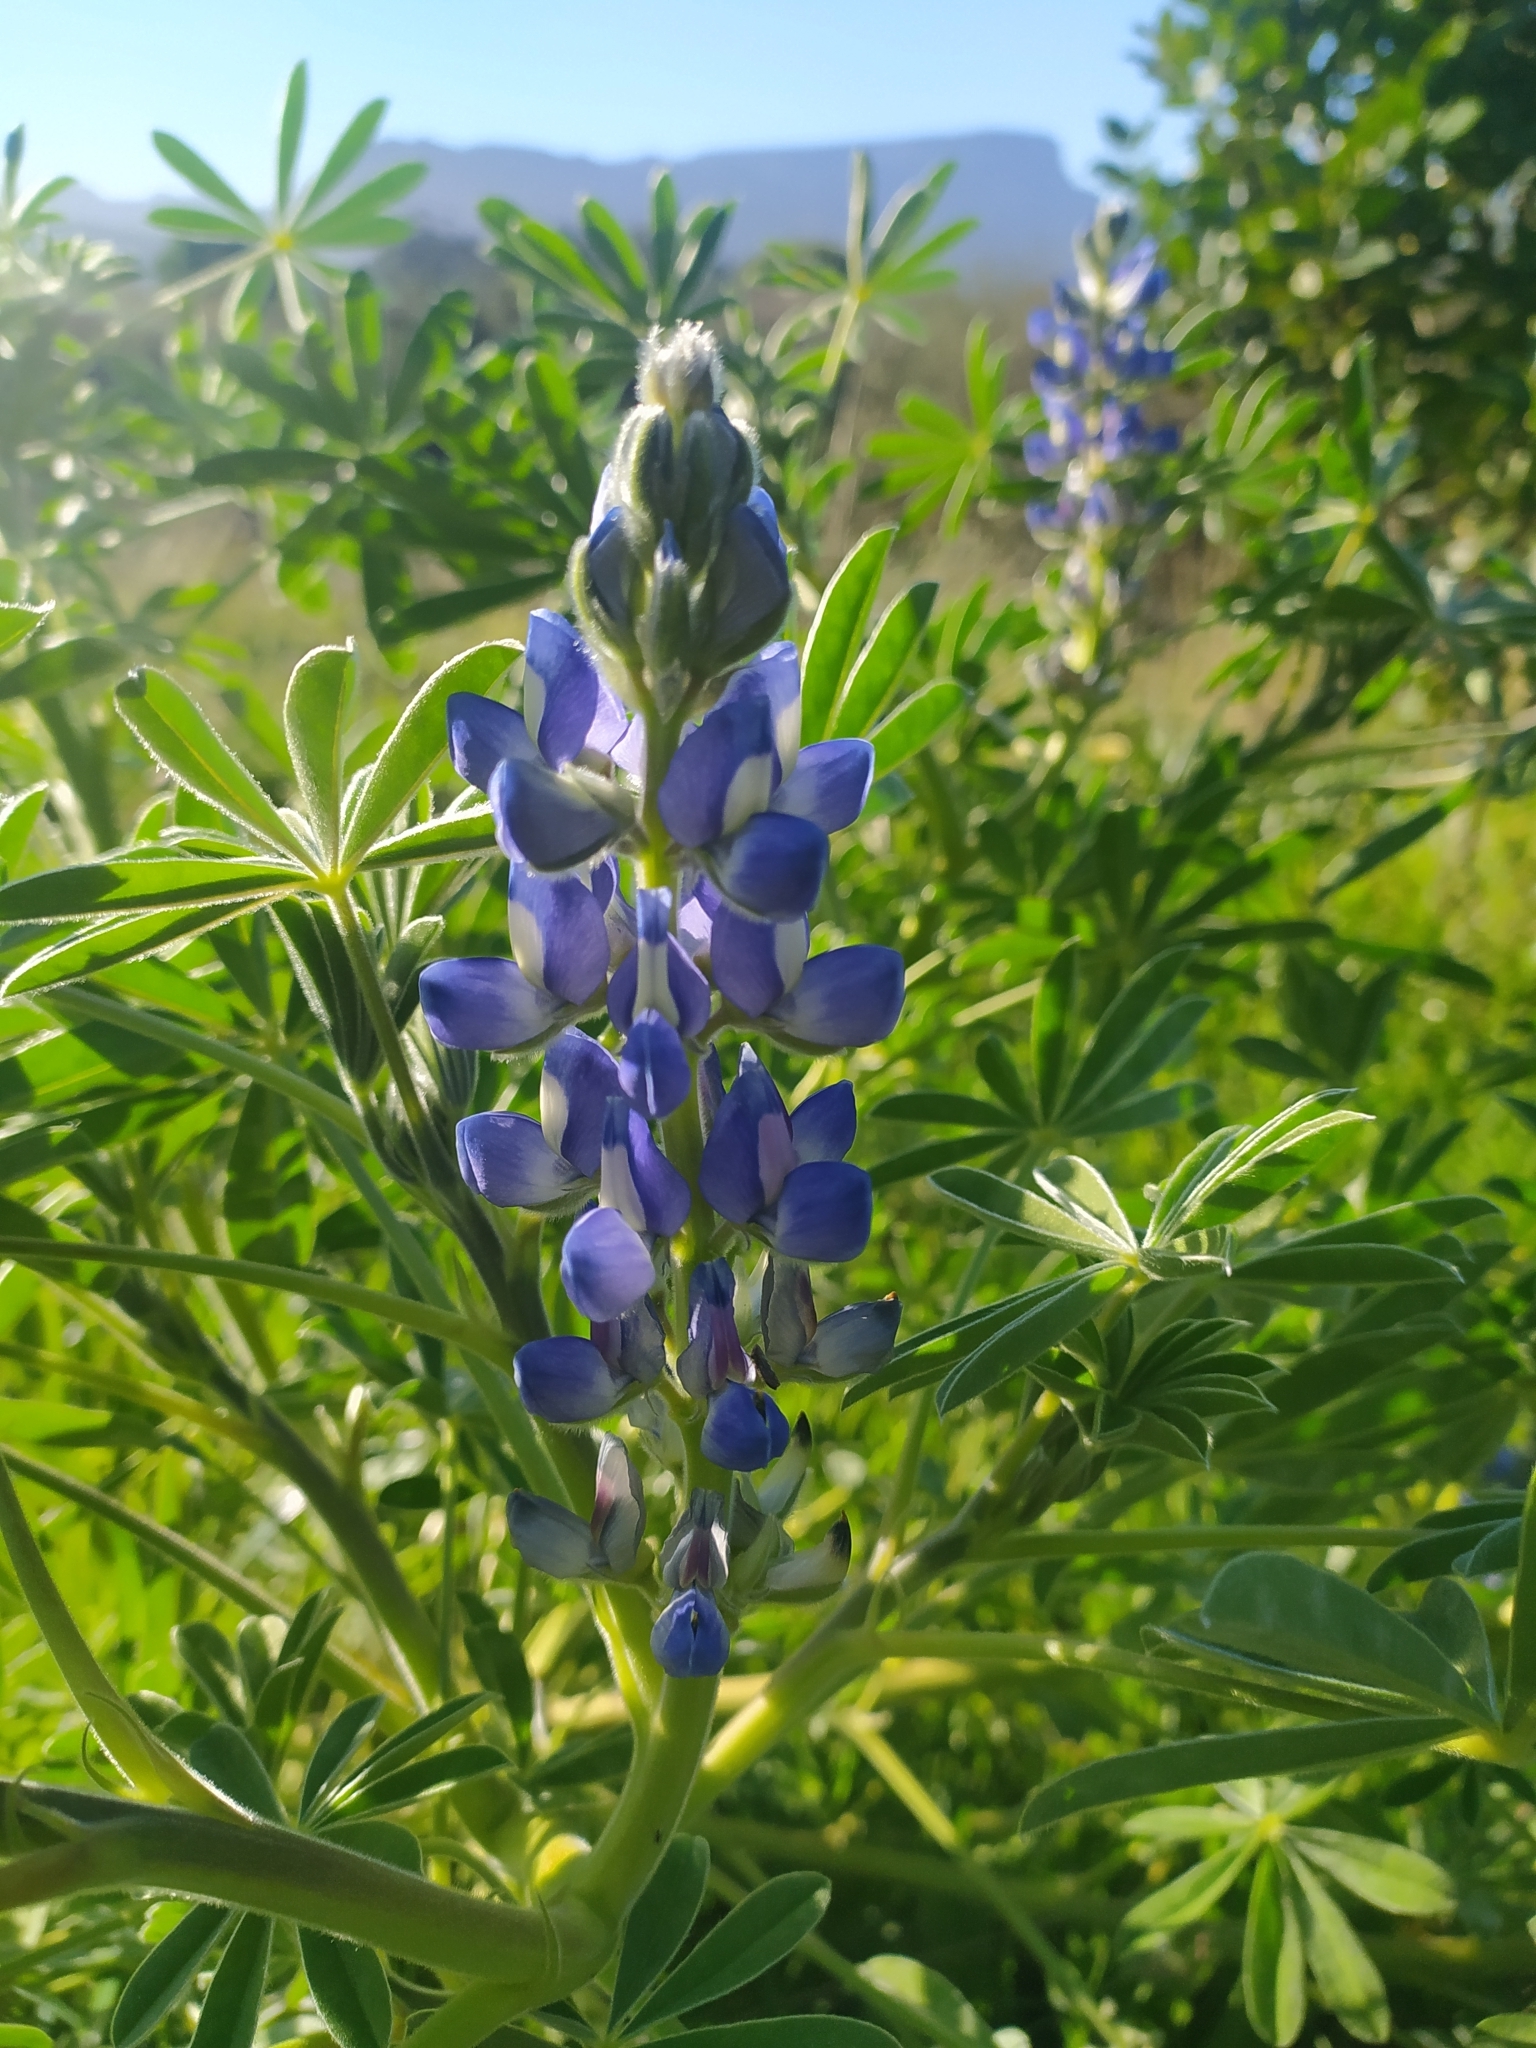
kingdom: Plantae
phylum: Tracheophyta
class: Magnoliopsida
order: Fabales
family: Fabaceae
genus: Lupinus
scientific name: Lupinus cosentinii
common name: Hairy blue lupin
